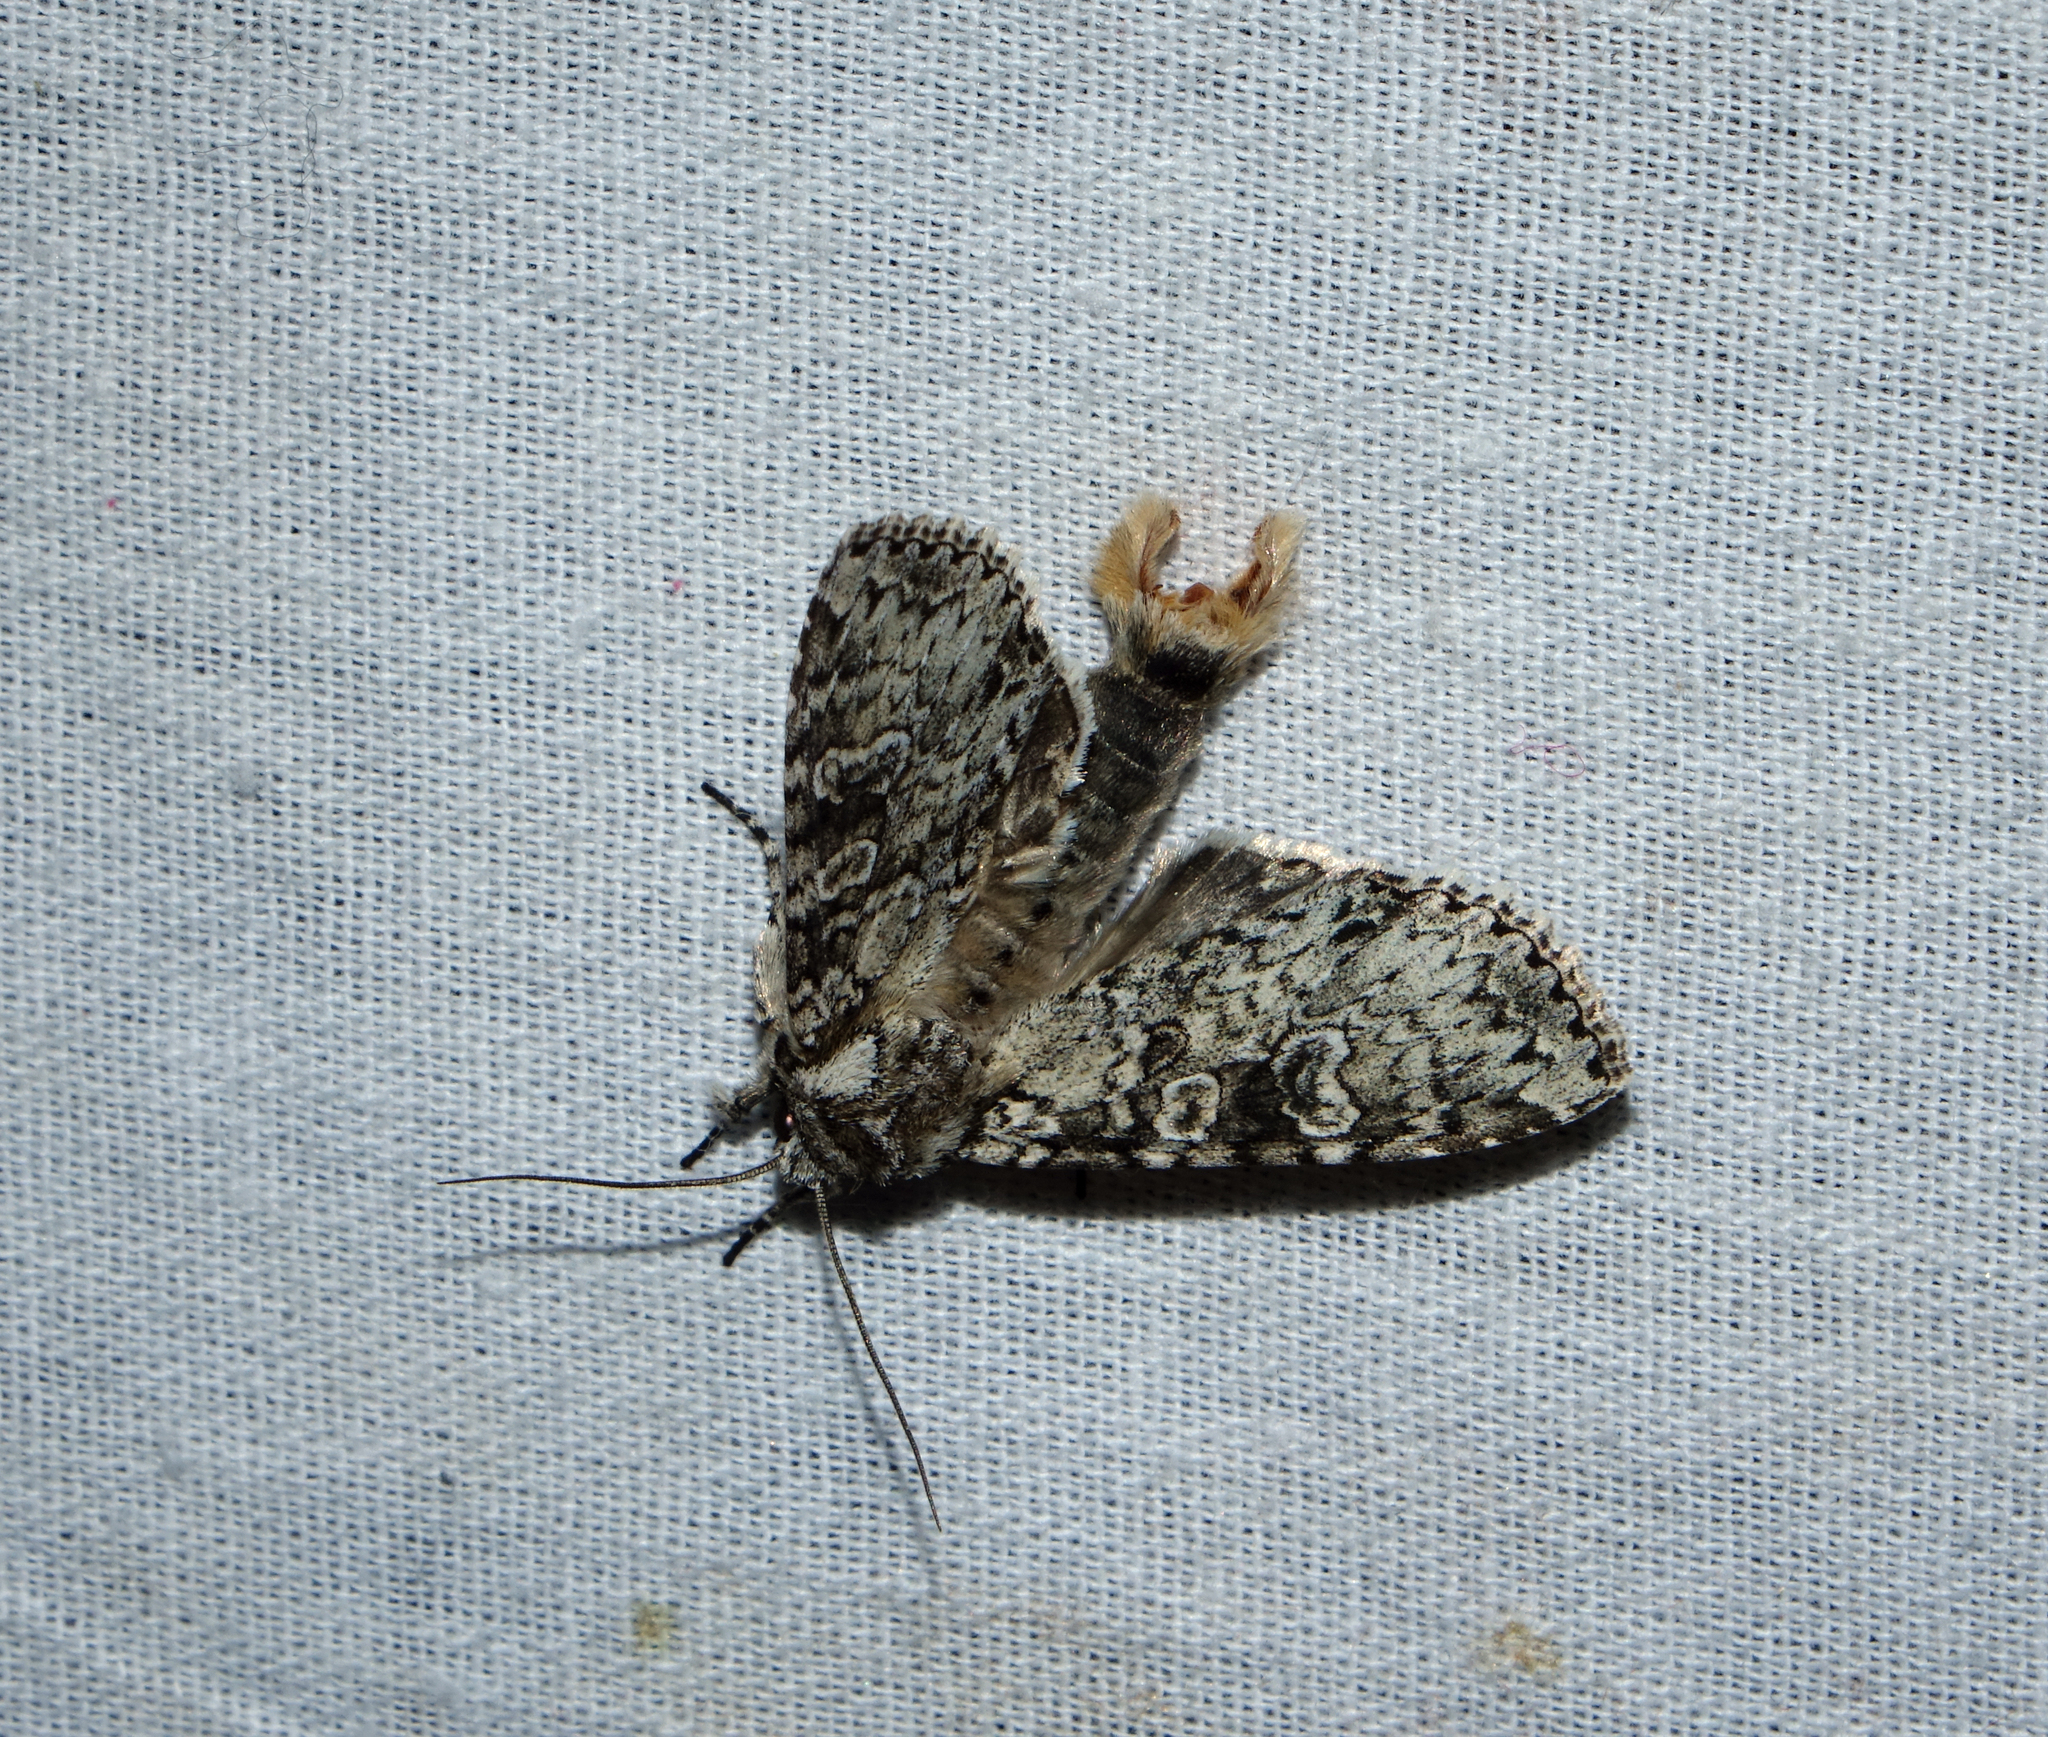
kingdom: Animalia
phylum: Arthropoda
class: Insecta
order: Lepidoptera
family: Noctuidae
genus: Polia
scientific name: Polia nebulosa
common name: Grey arches
